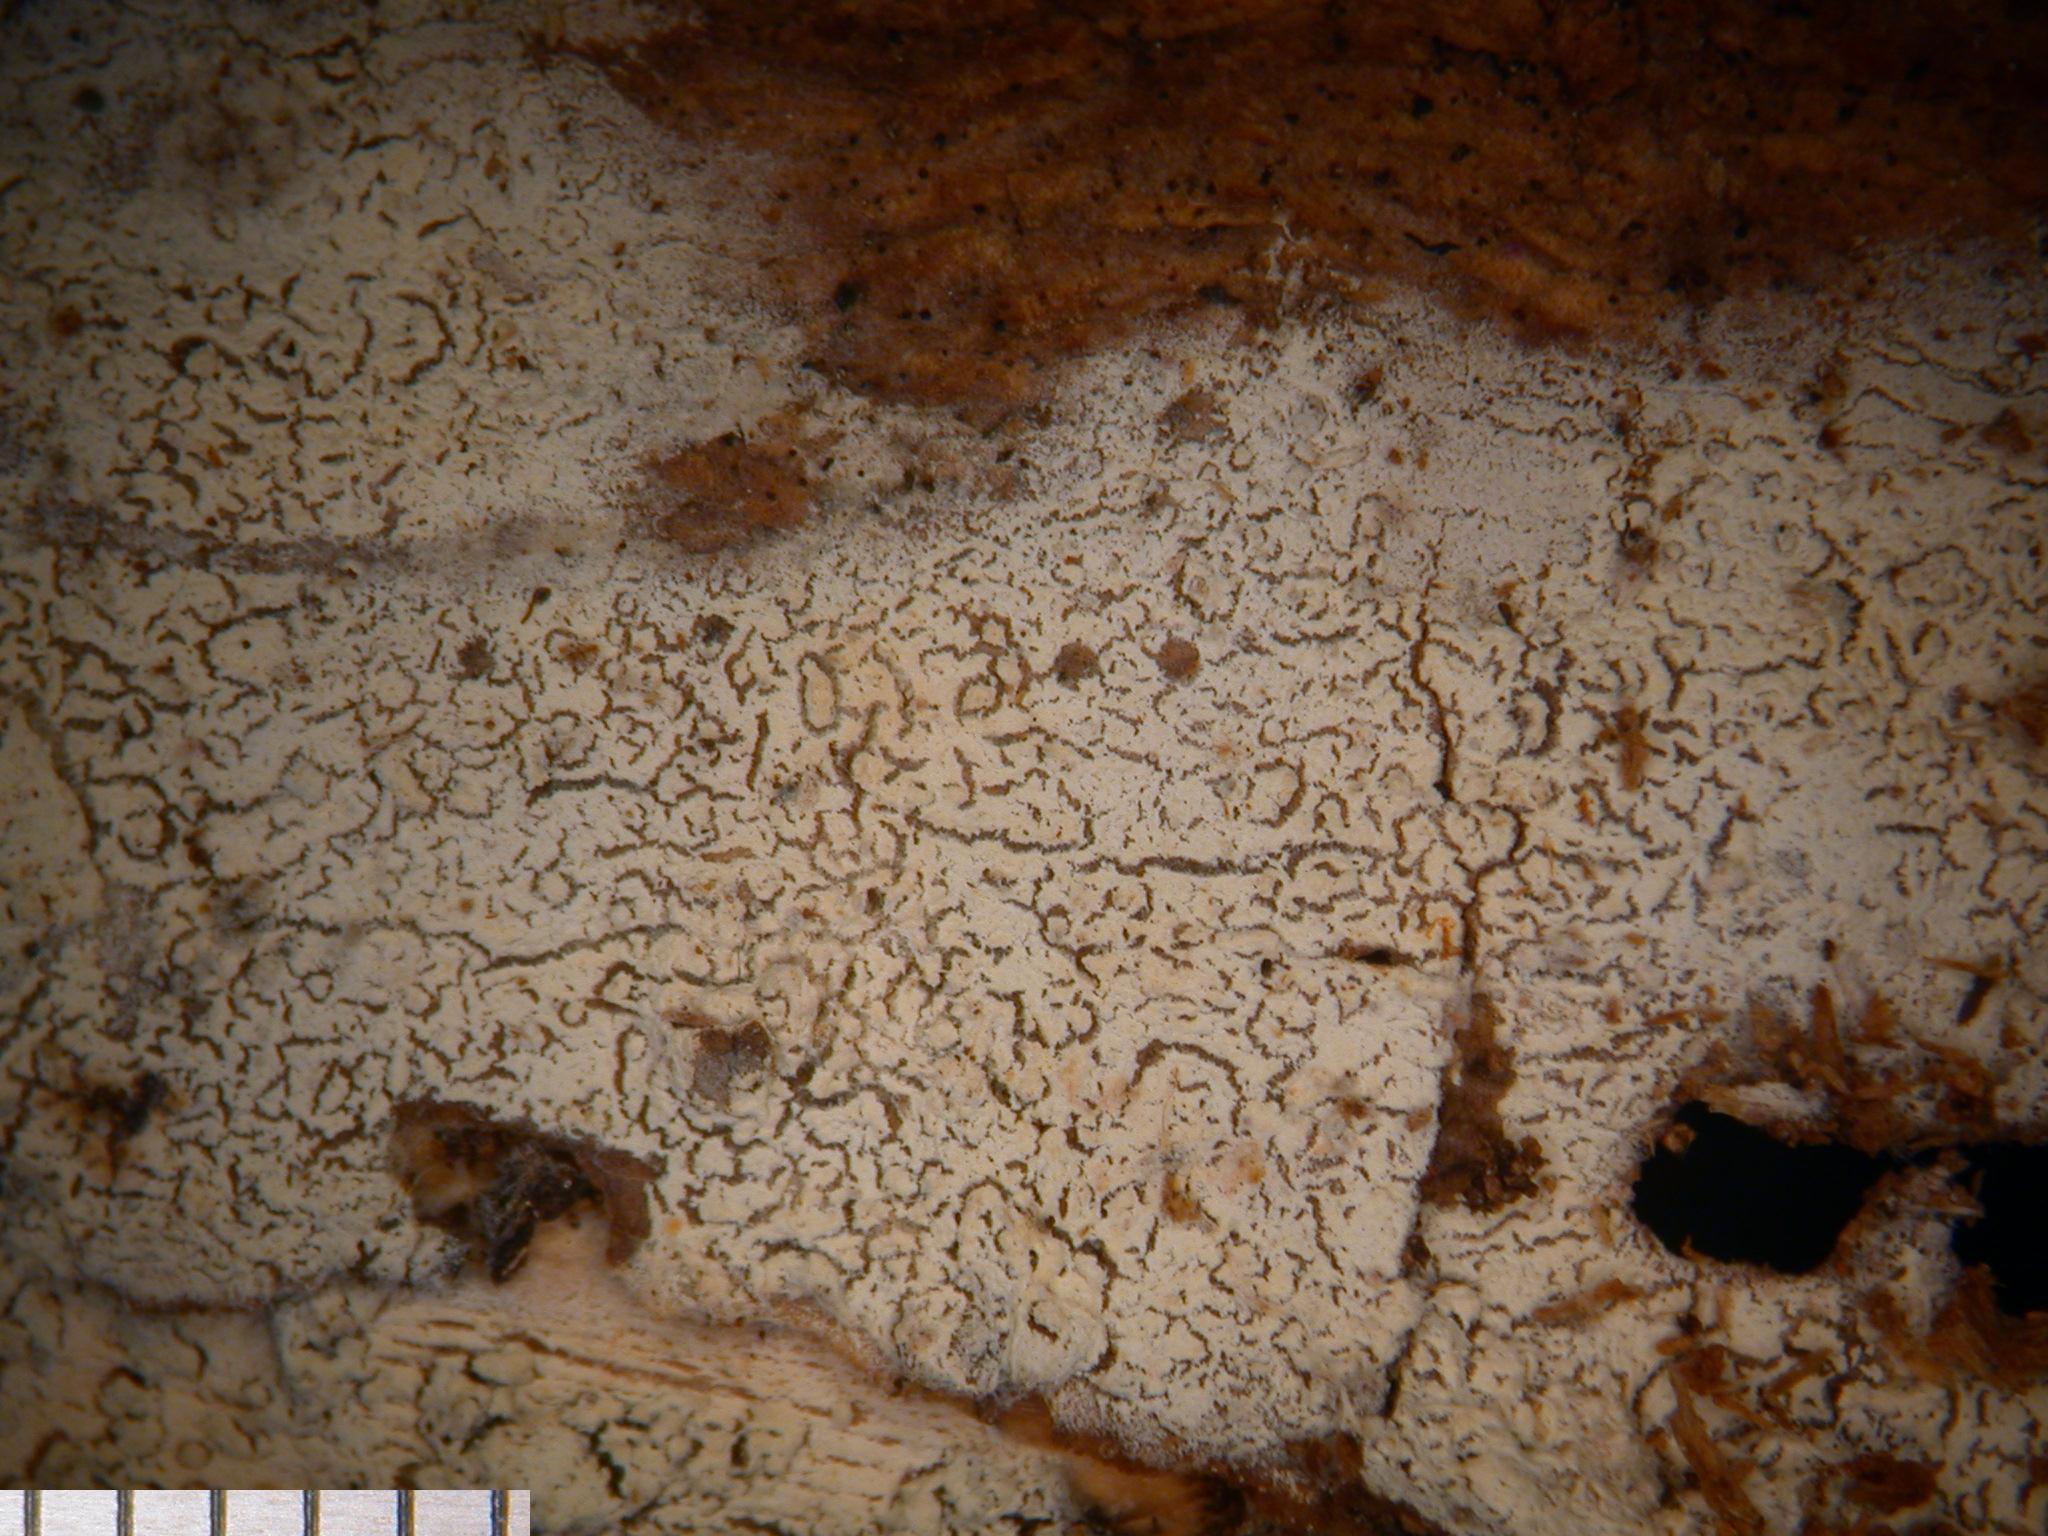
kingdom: Fungi
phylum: Basidiomycota
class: Agaricomycetes
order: Hymenochaetales
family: Hymenochaetaceae
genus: Tubulicrinis
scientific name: Tubulicrinis umbraculus
